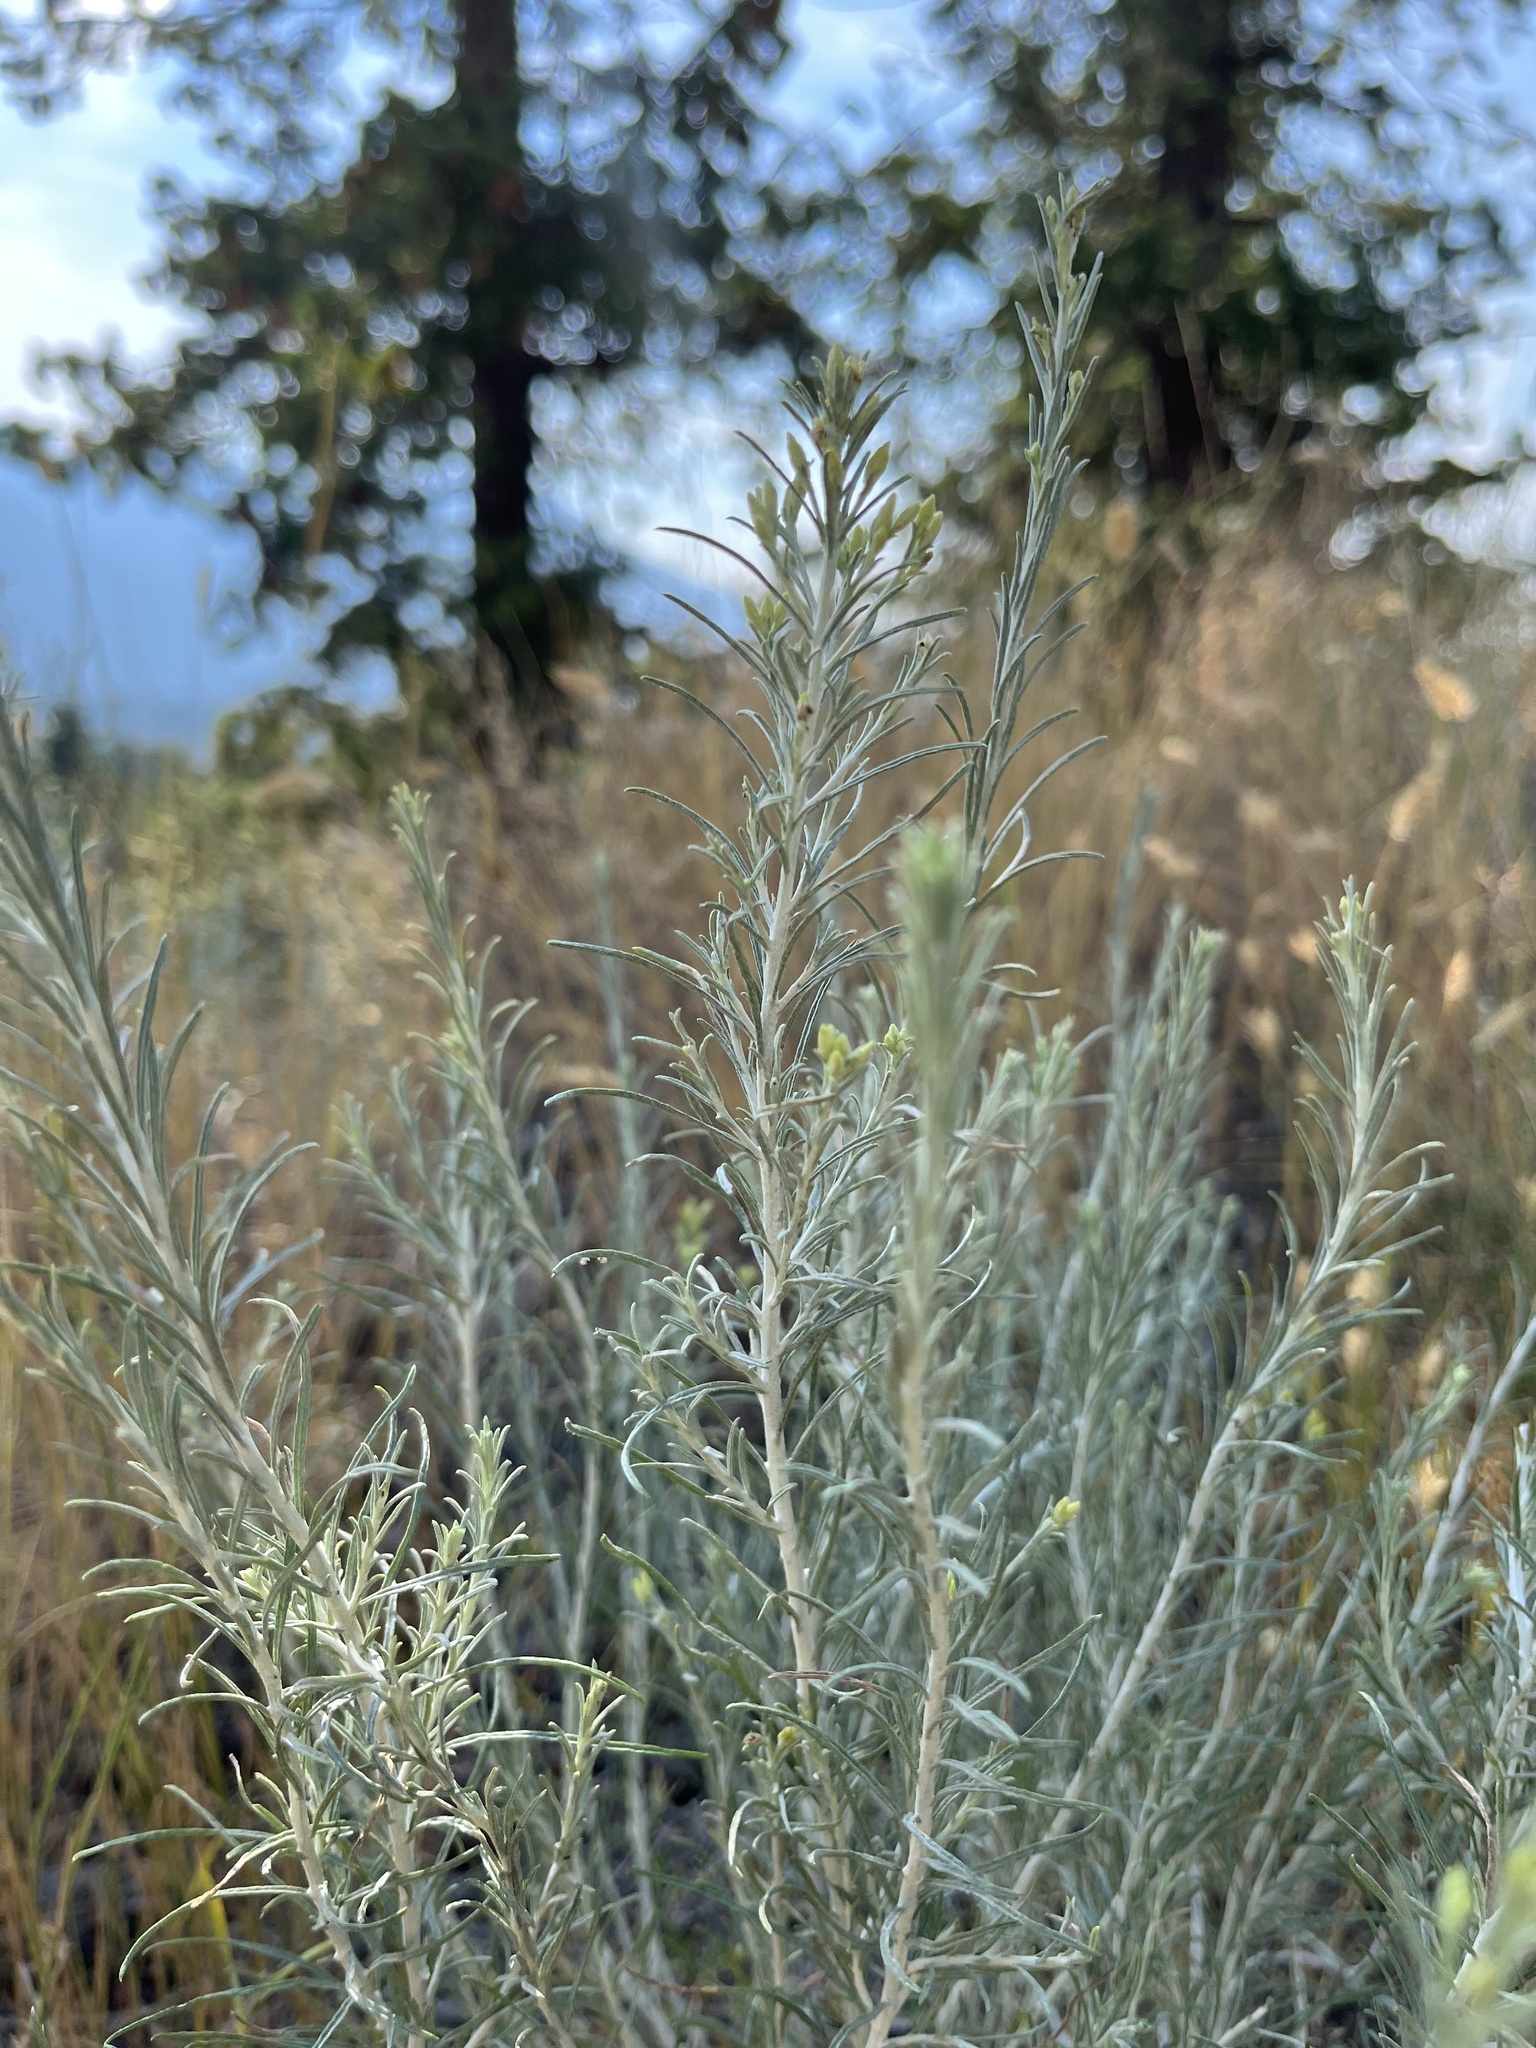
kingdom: Plantae
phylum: Tracheophyta
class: Magnoliopsida
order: Asterales
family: Asteraceae
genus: Ericameria
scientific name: Ericameria nauseosa
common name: Rubber rabbitbrush
